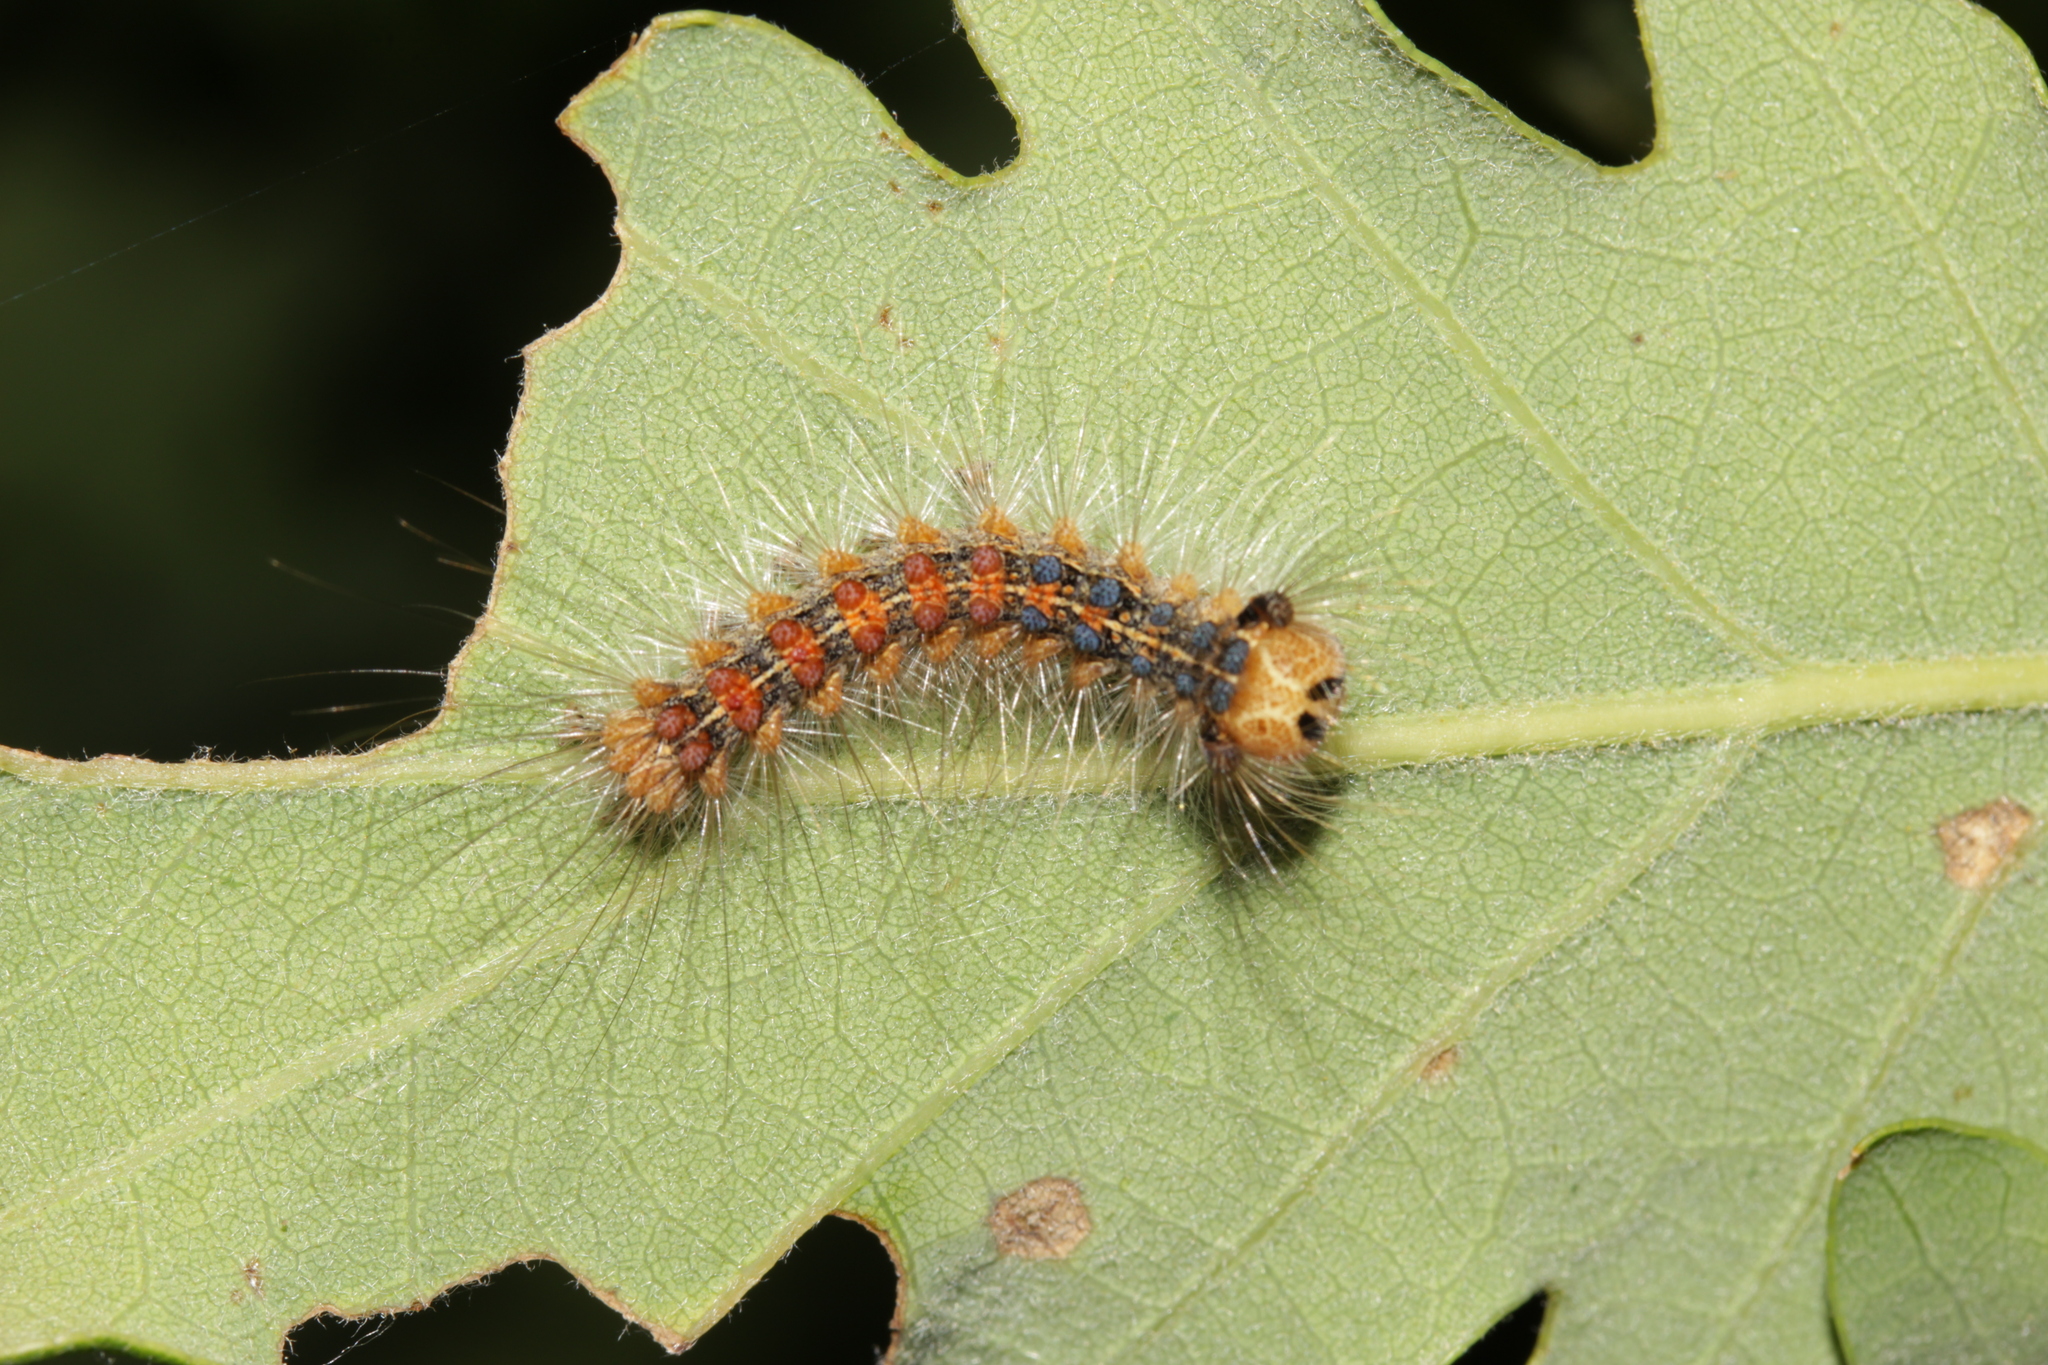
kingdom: Animalia
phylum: Arthropoda
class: Insecta
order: Lepidoptera
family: Erebidae
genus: Lymantria
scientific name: Lymantria dispar
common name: Gypsy moth
